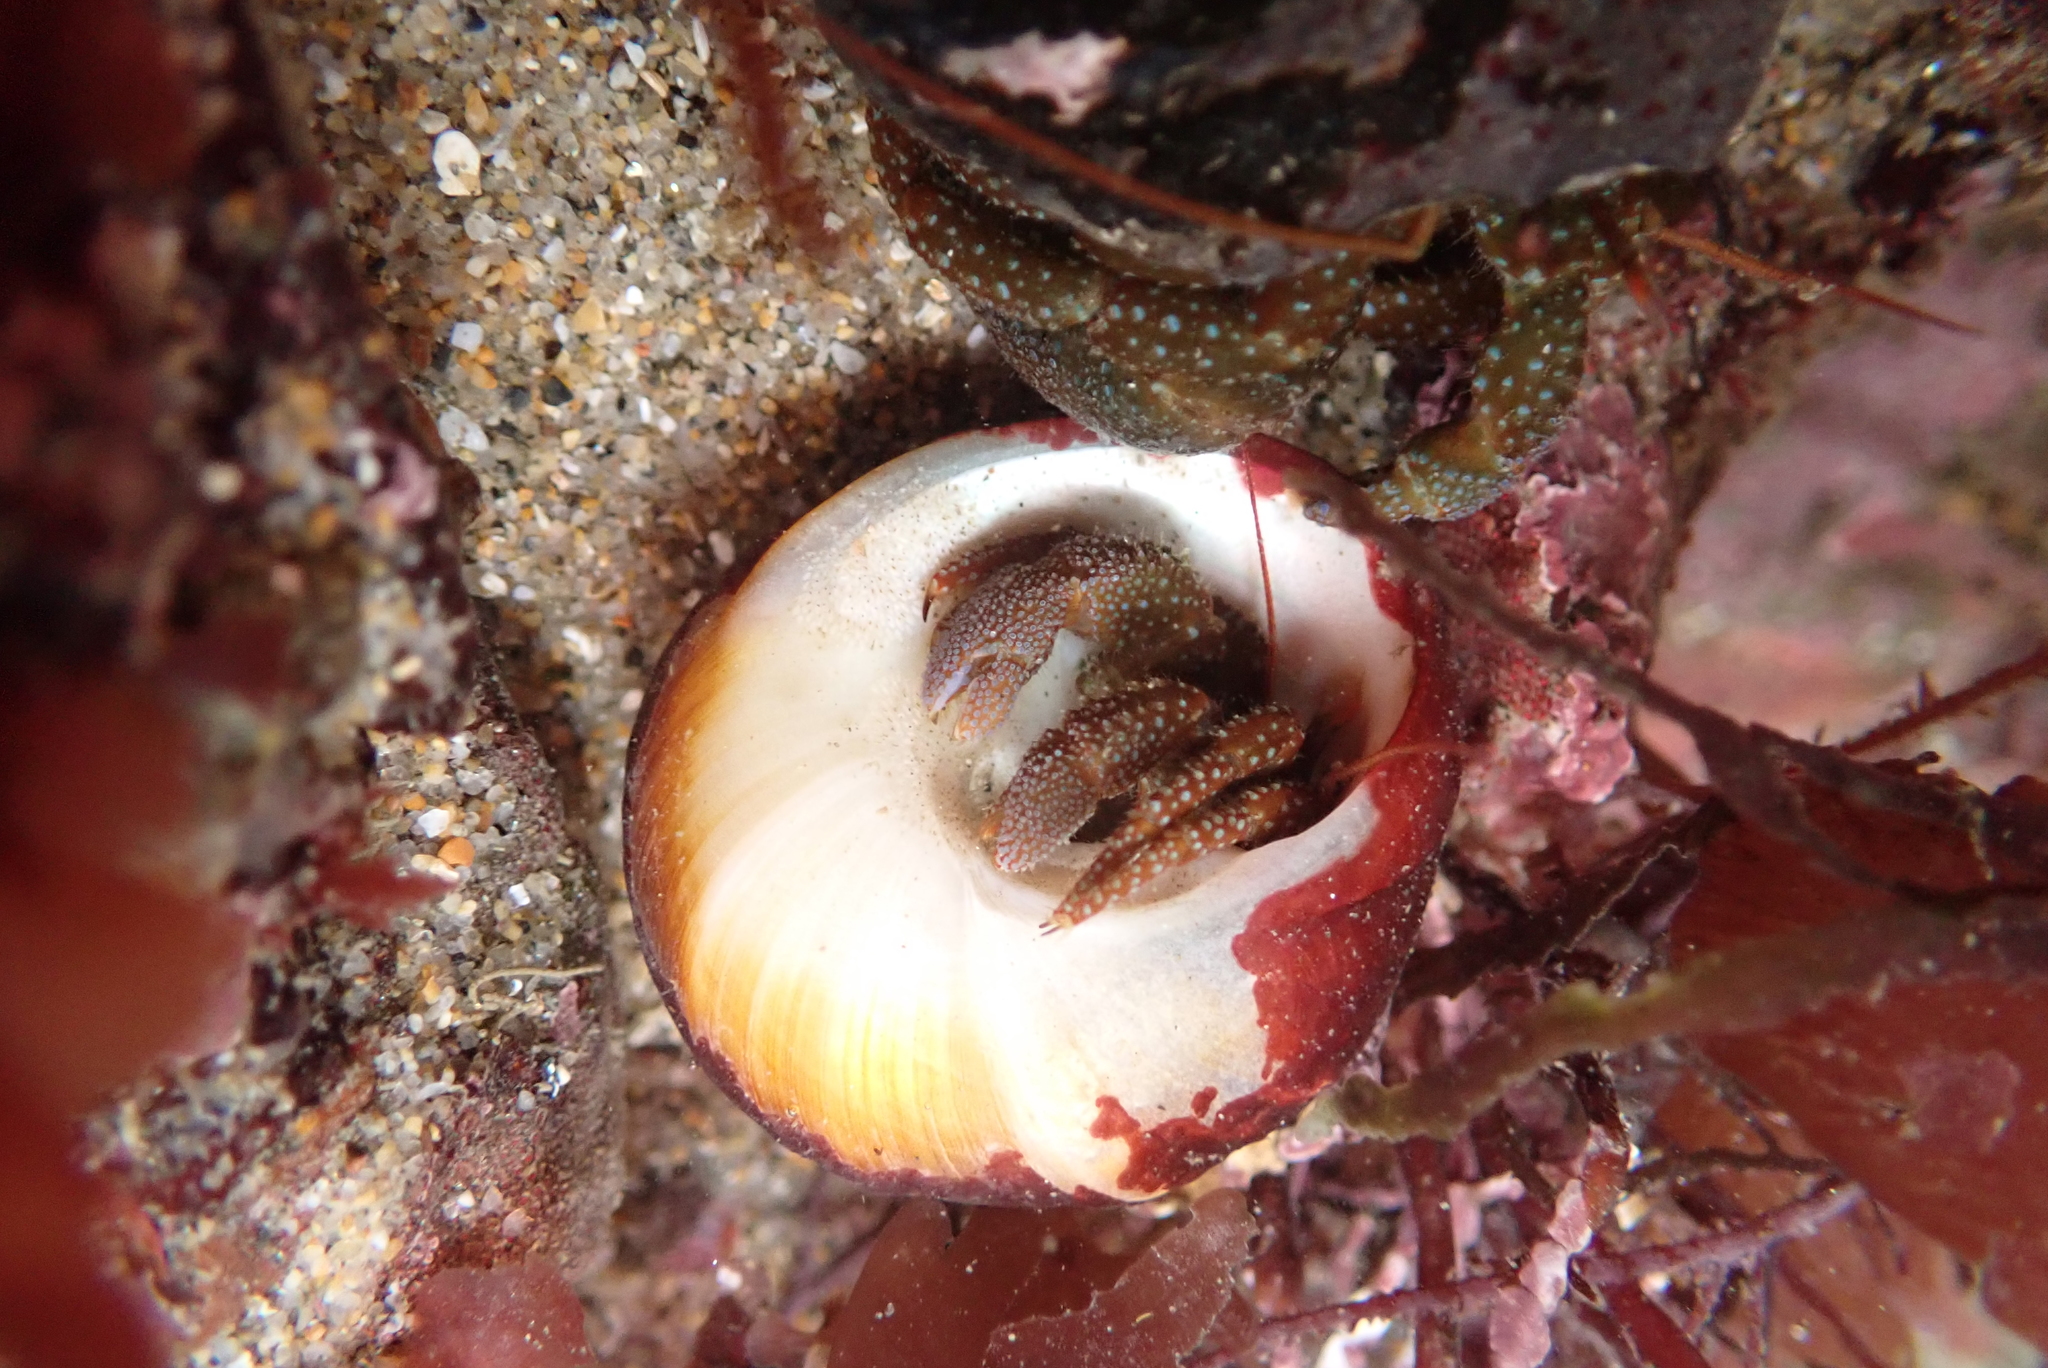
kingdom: Animalia
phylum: Arthropoda
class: Malacostraca
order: Decapoda
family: Paguridae
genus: Pagurus
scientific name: Pagurus granosimanus
